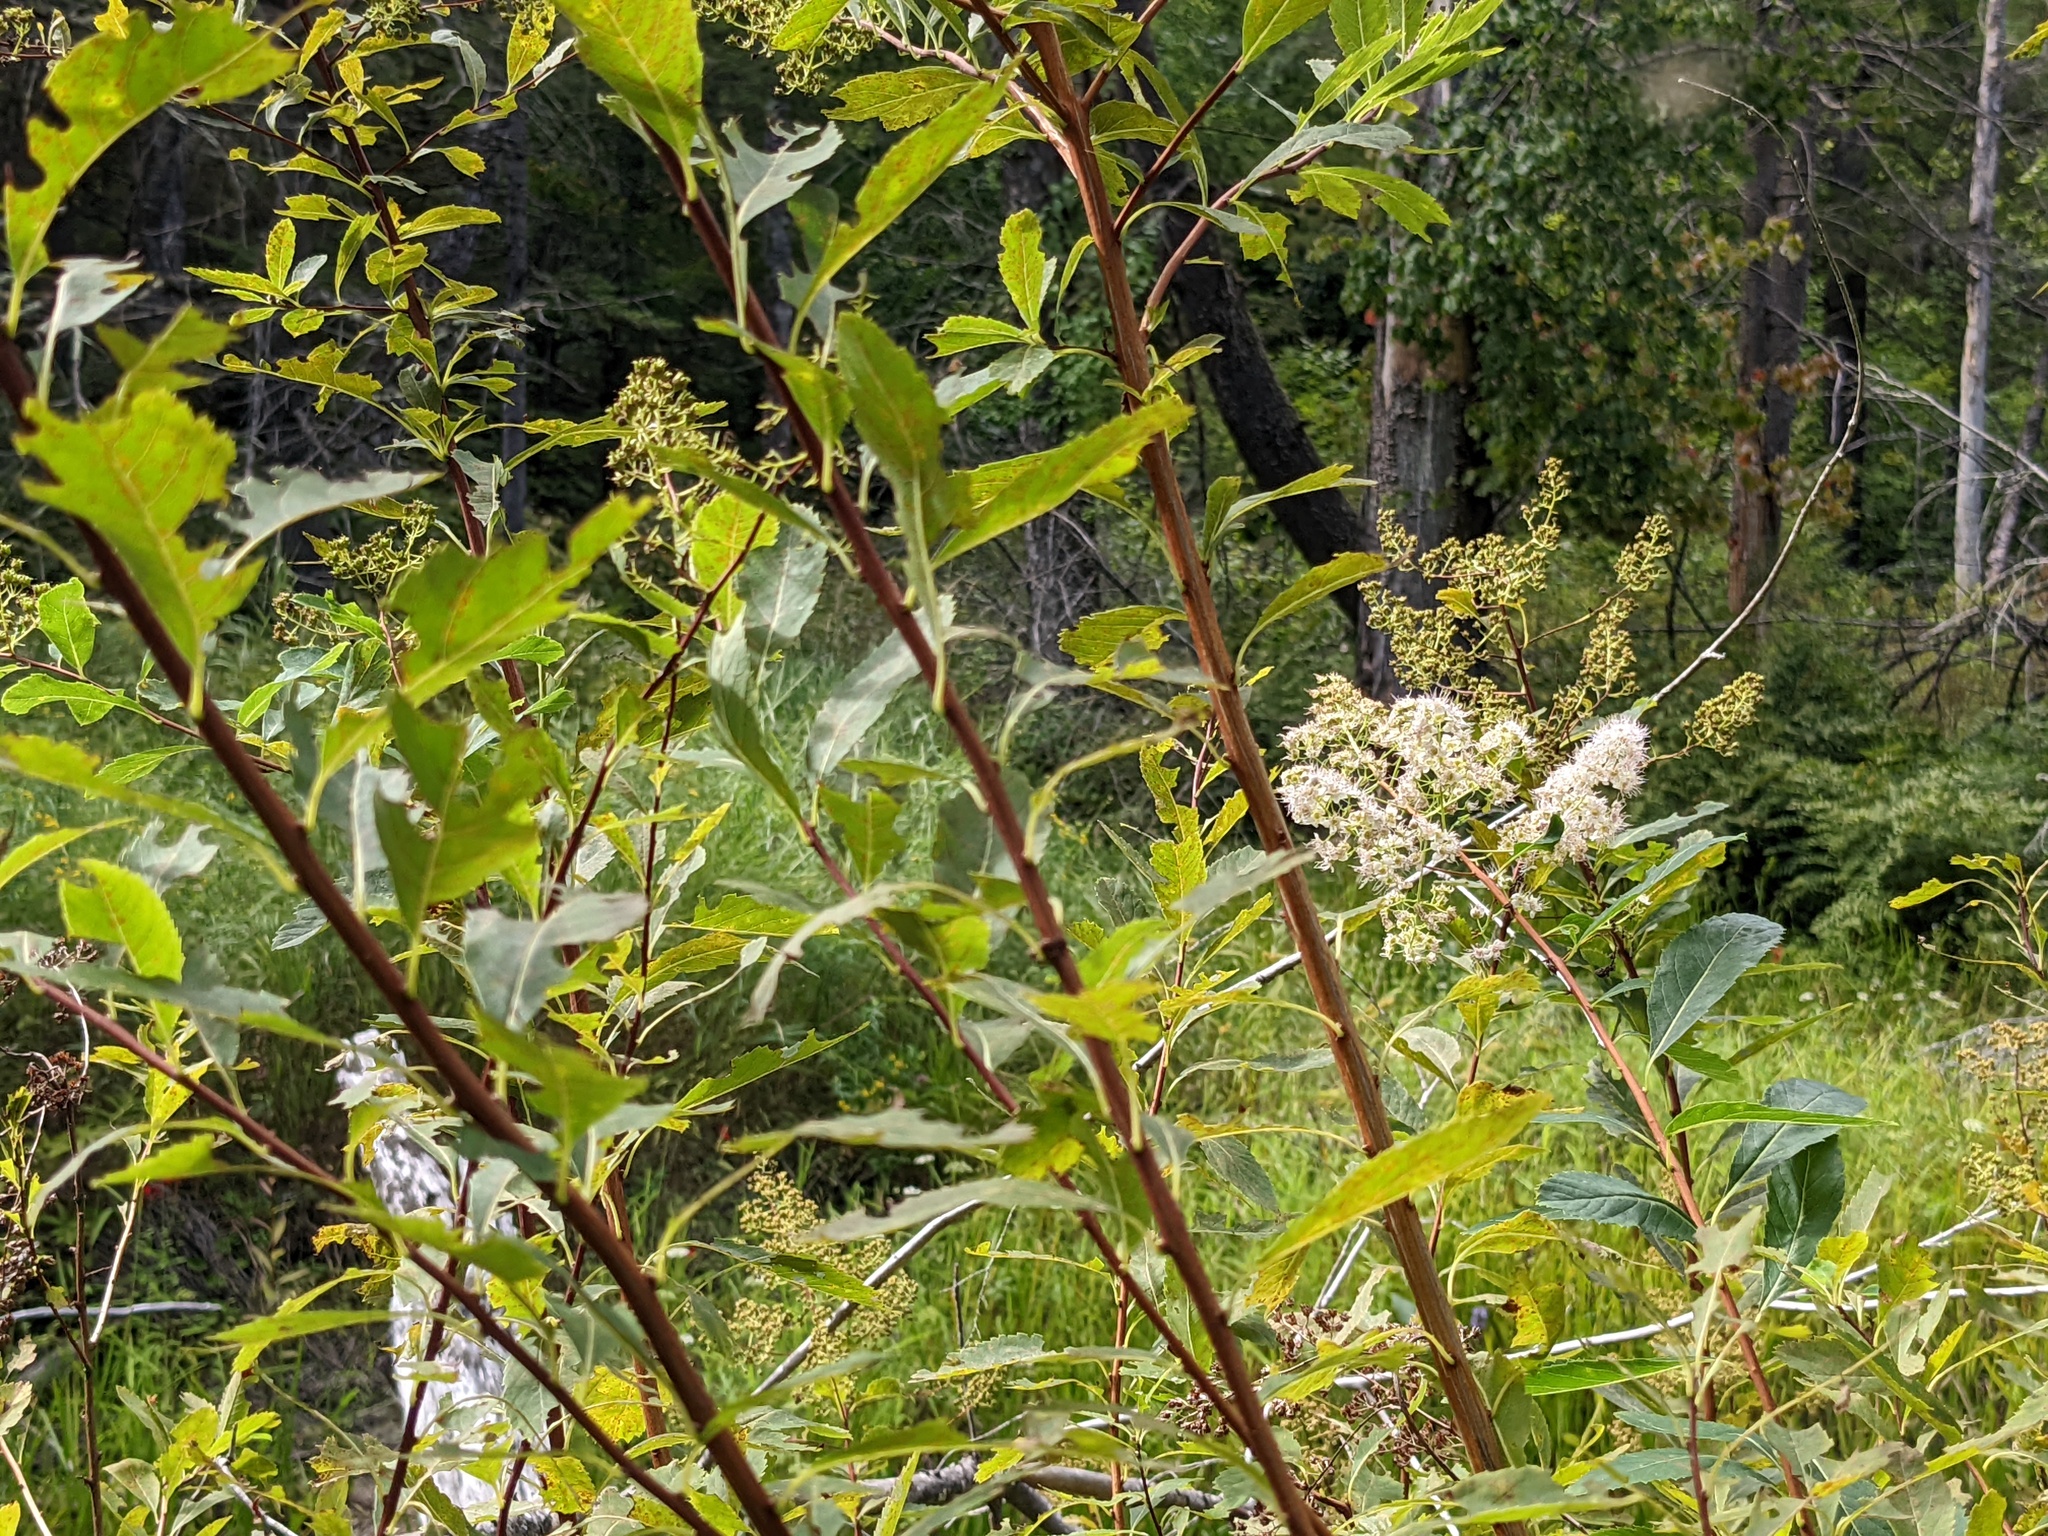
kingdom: Plantae
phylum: Tracheophyta
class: Magnoliopsida
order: Rosales
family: Rosaceae
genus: Spiraea
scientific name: Spiraea alba
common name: Pale bridewort
